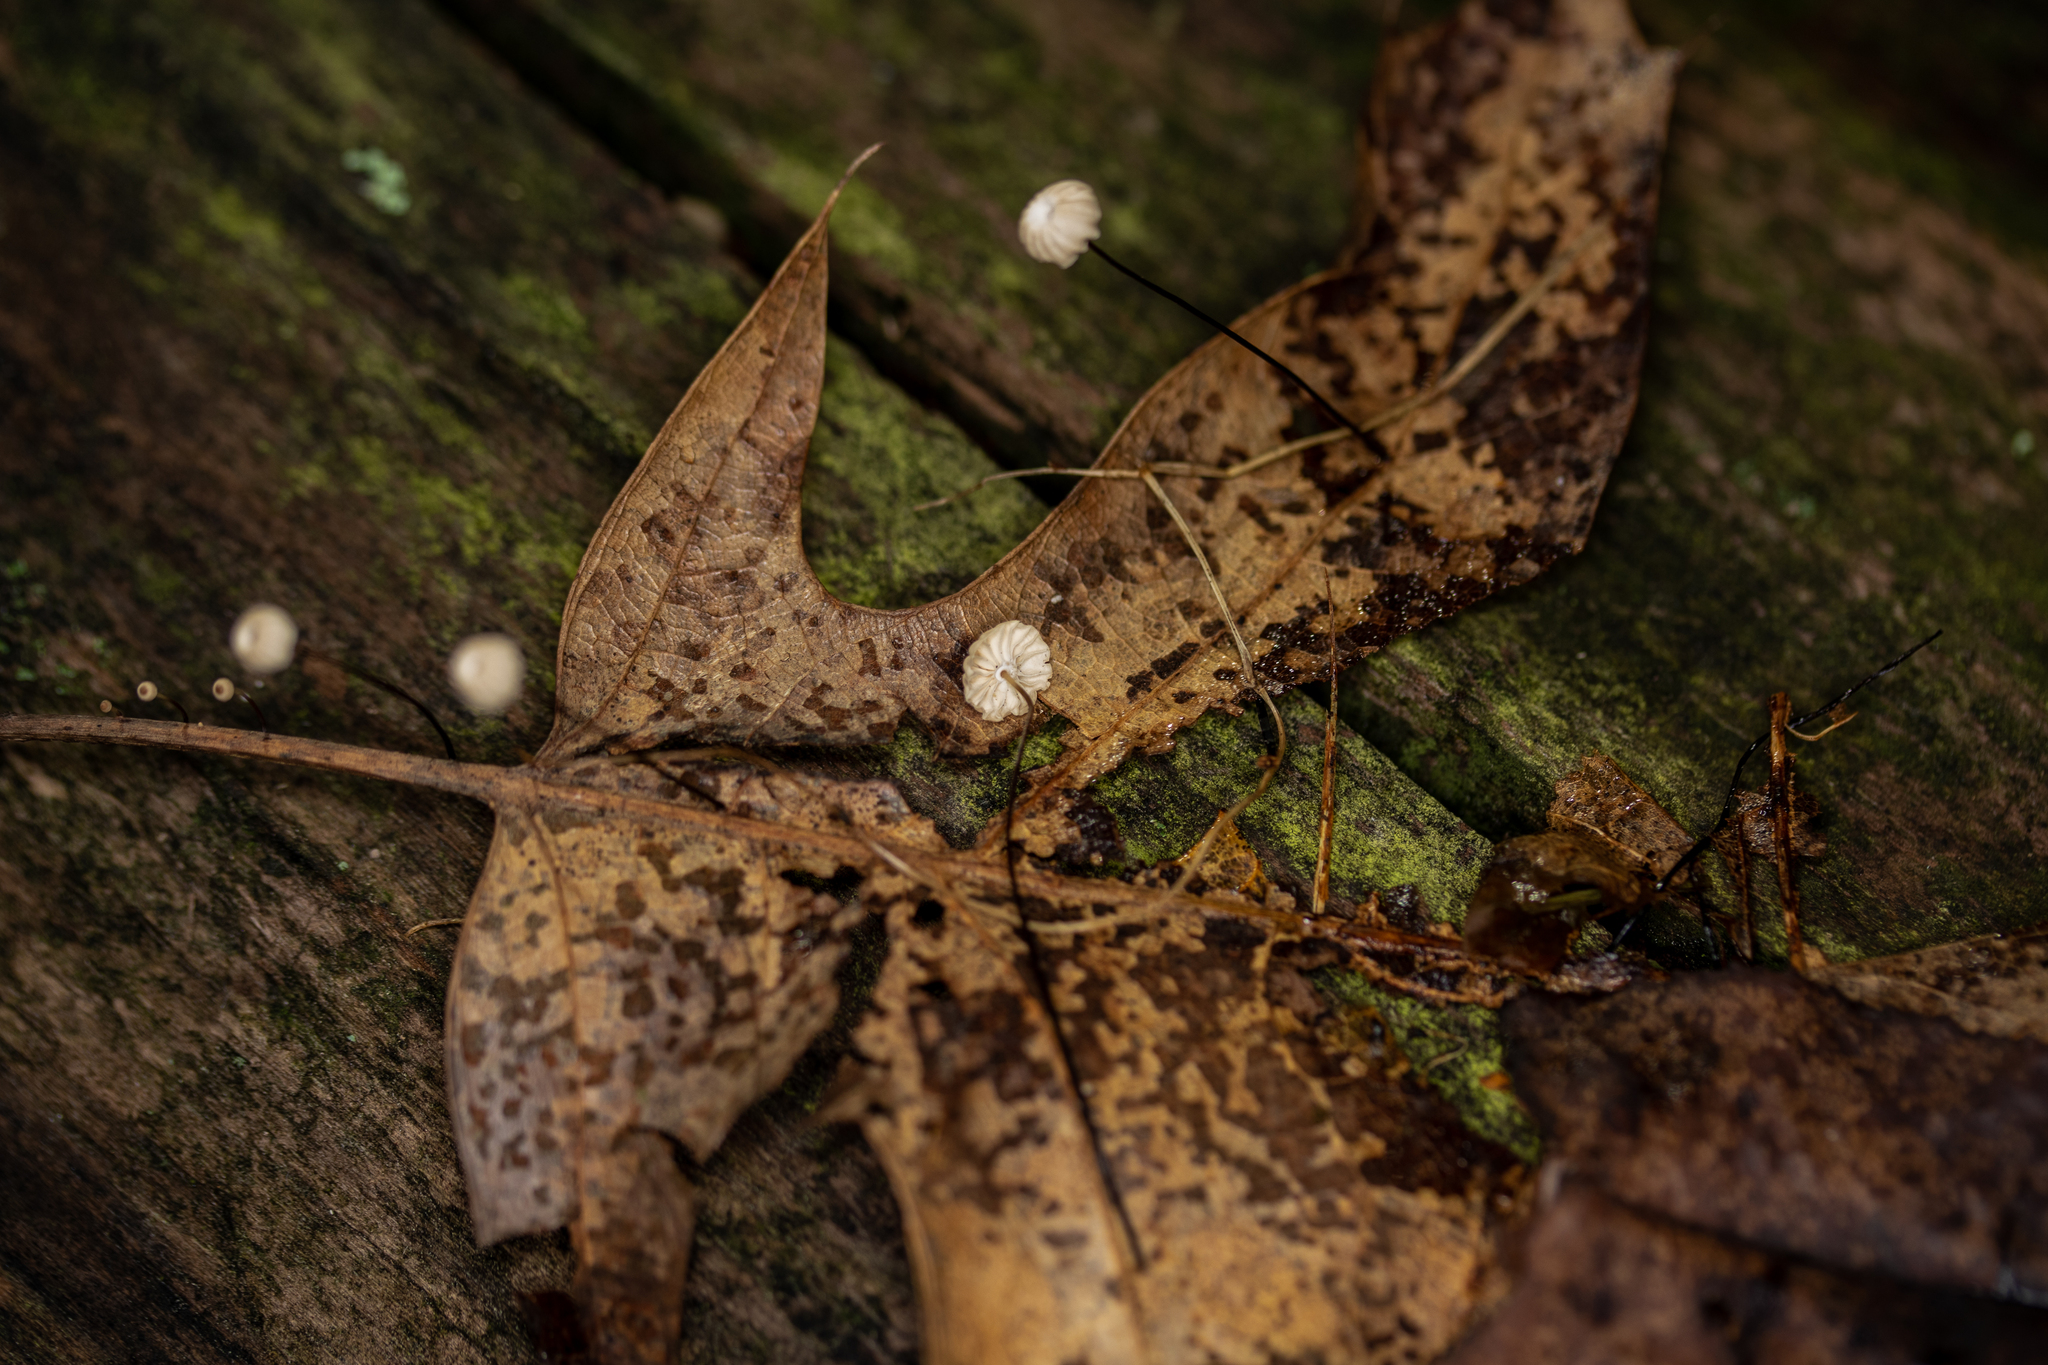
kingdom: Fungi
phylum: Basidiomycota
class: Agaricomycetes
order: Agaricales
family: Marasmiaceae
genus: Marasmius
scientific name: Marasmius capillaris
